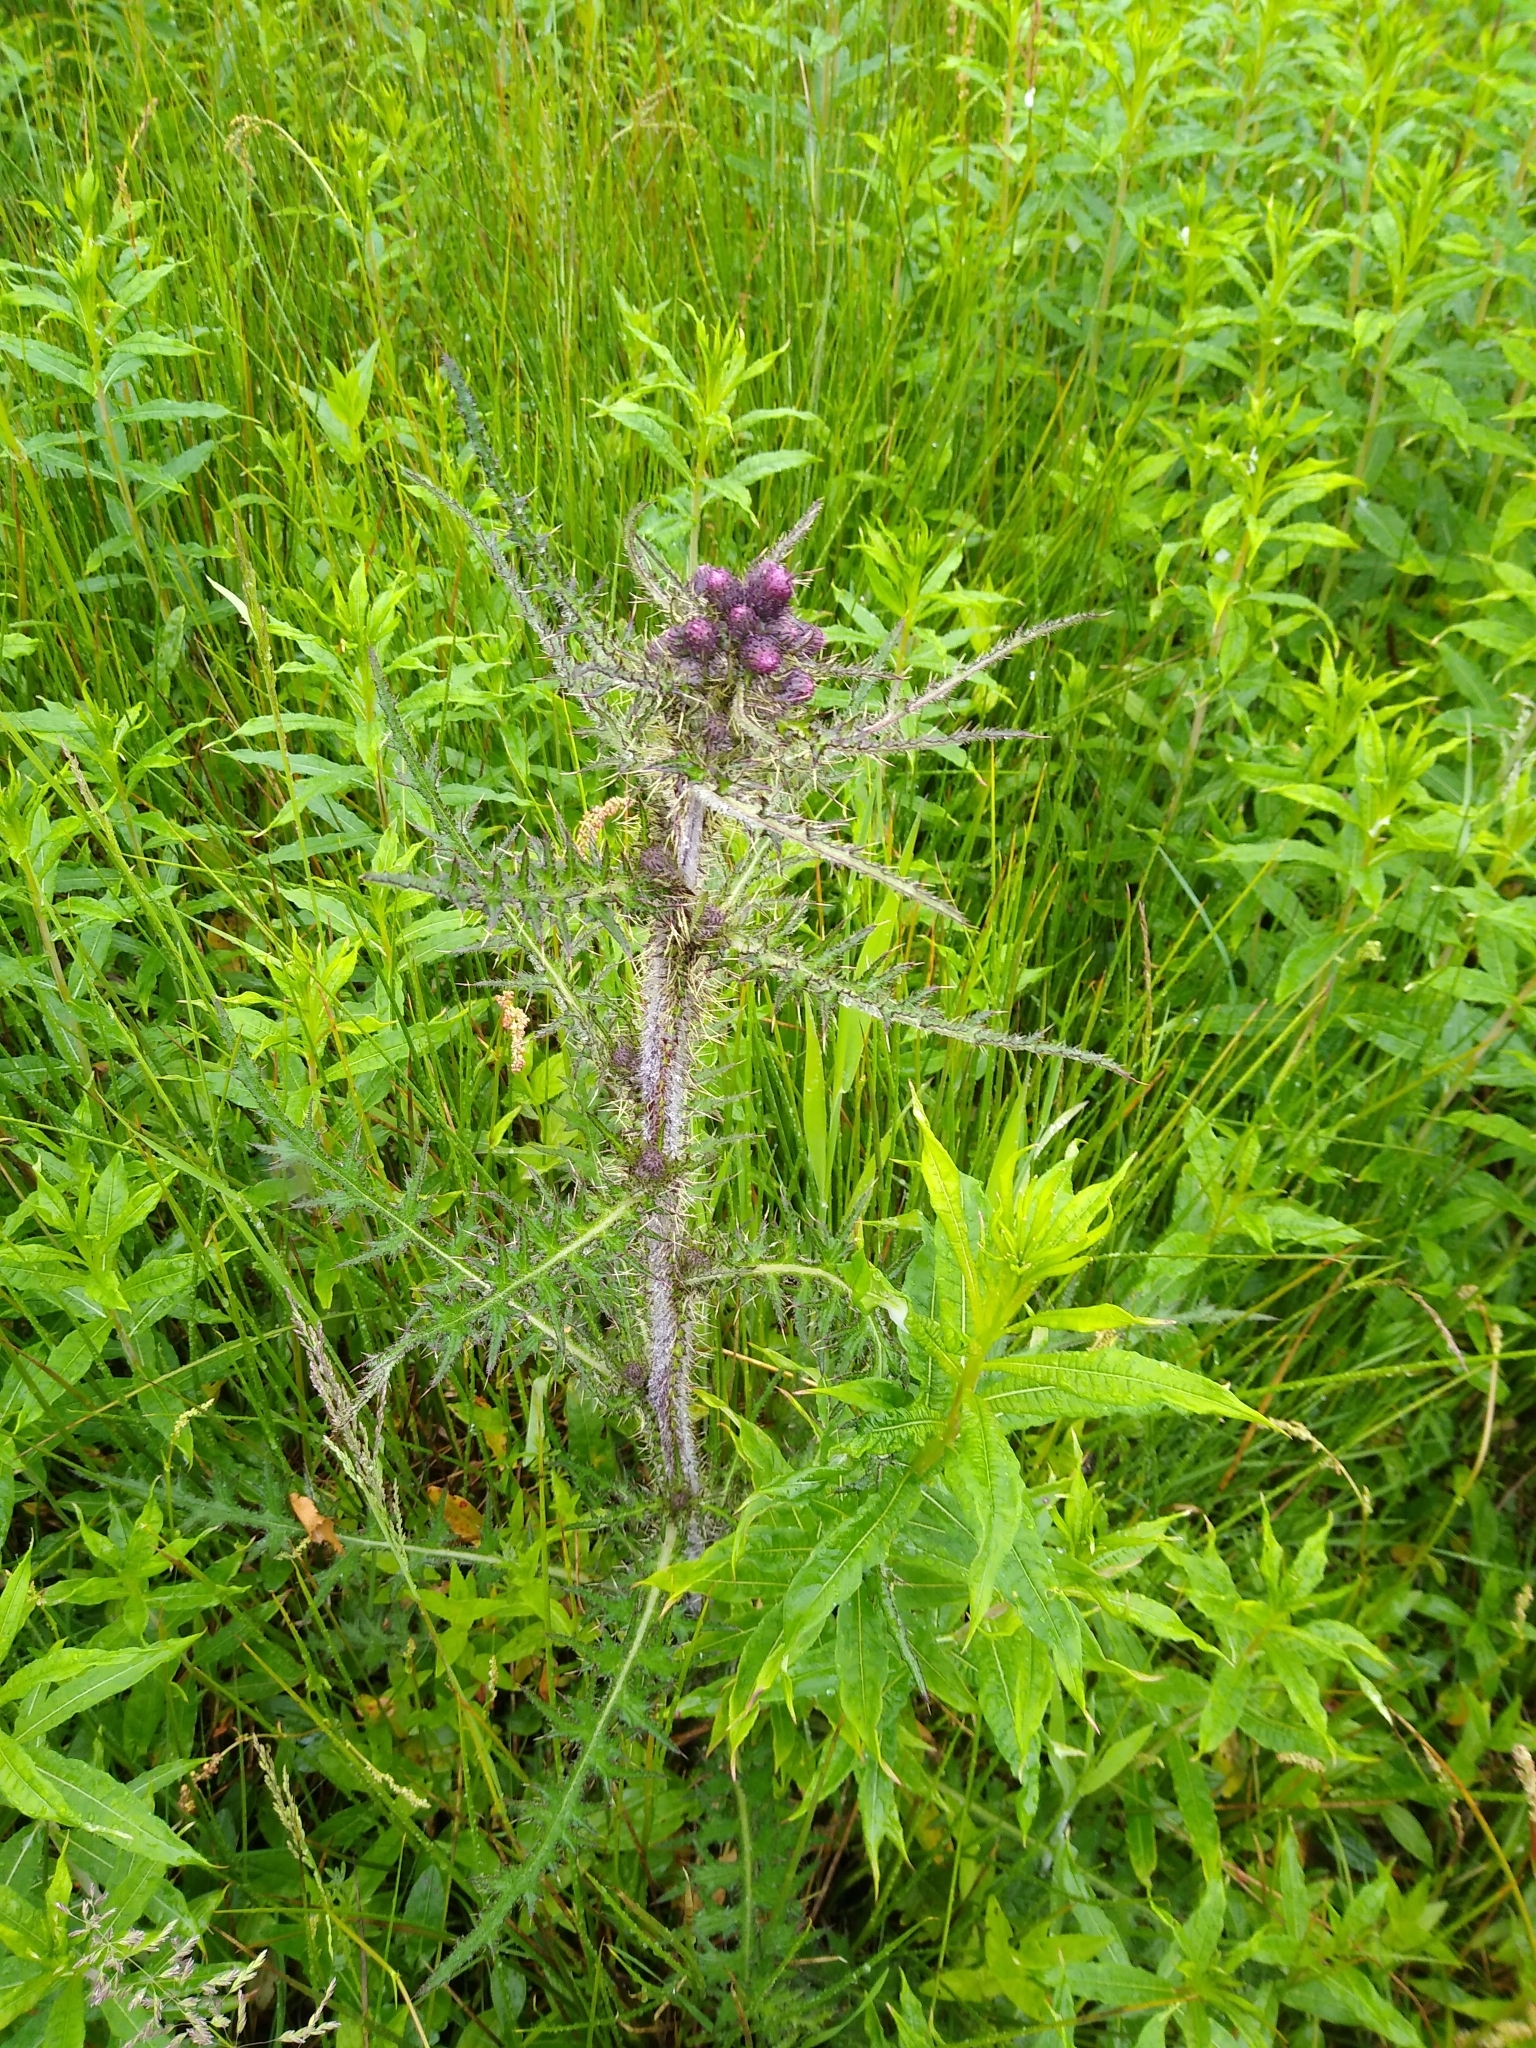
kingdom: Plantae
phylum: Tracheophyta
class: Magnoliopsida
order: Asterales
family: Asteraceae
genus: Cirsium
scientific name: Cirsium palustre
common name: Marsh thistle
